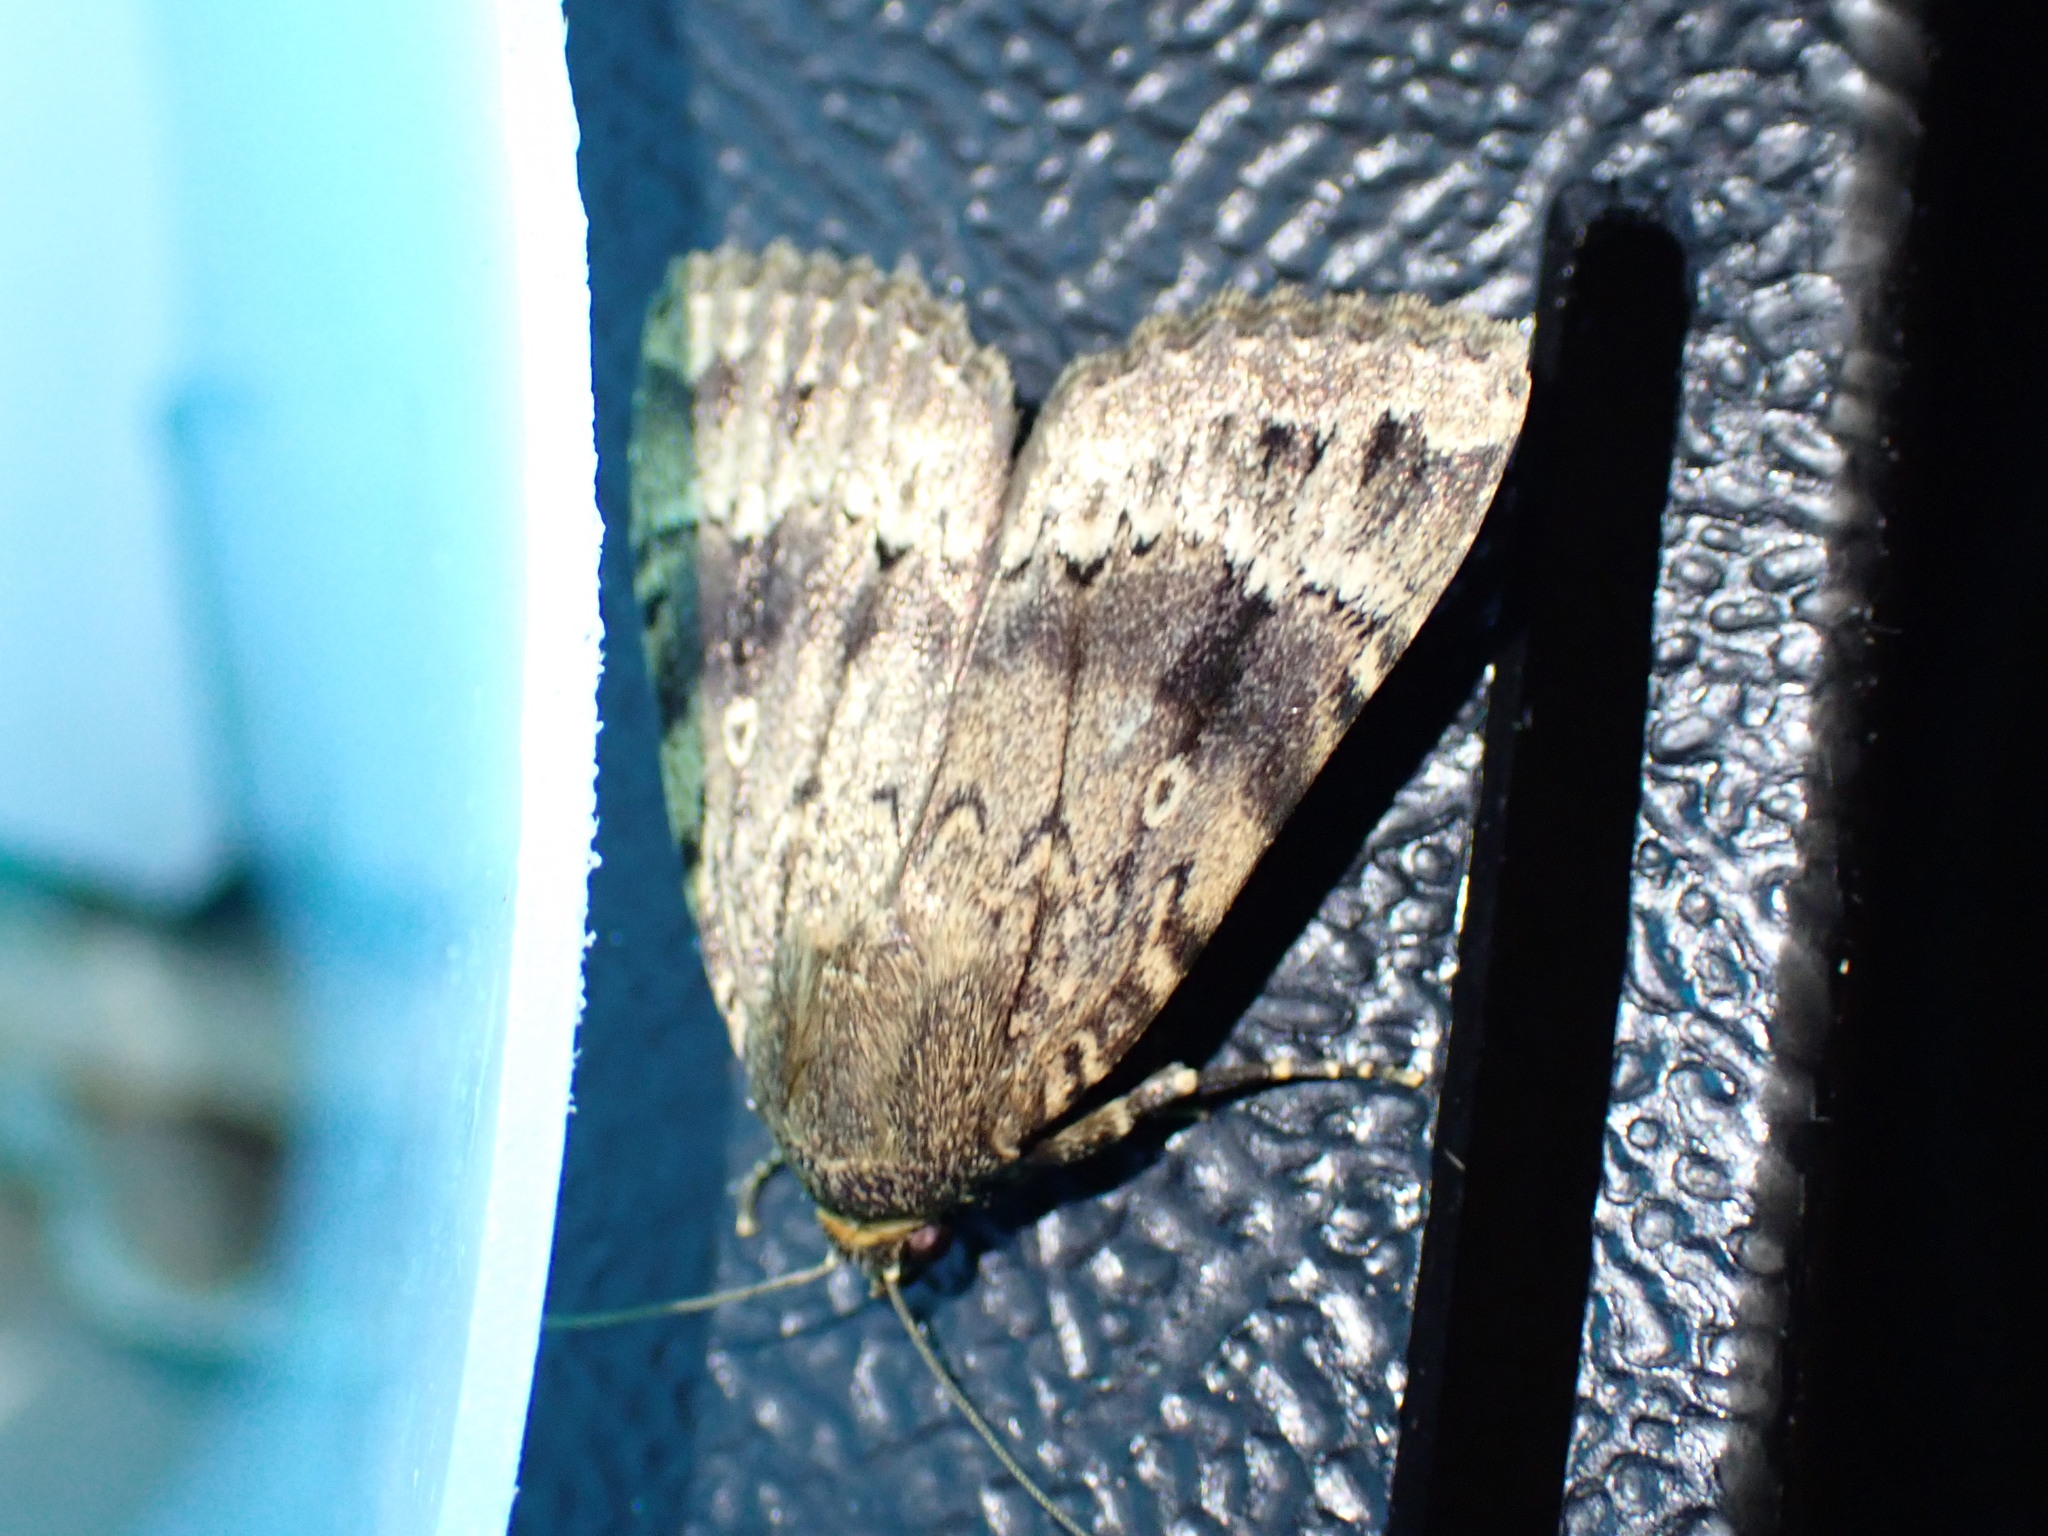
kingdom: Animalia
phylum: Arthropoda
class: Insecta
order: Lepidoptera
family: Noctuidae
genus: Amphipyra
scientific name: Amphipyra
